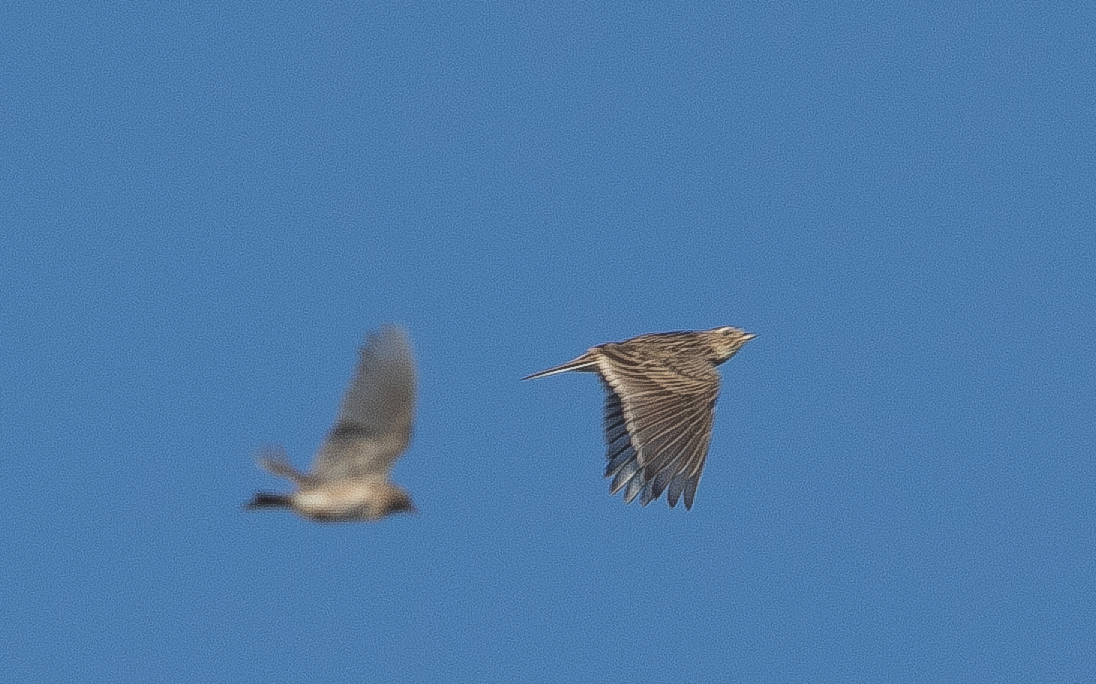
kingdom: Animalia
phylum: Chordata
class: Aves
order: Passeriformes
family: Alaudidae
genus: Alauda
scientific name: Alauda arvensis
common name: Eurasian skylark
